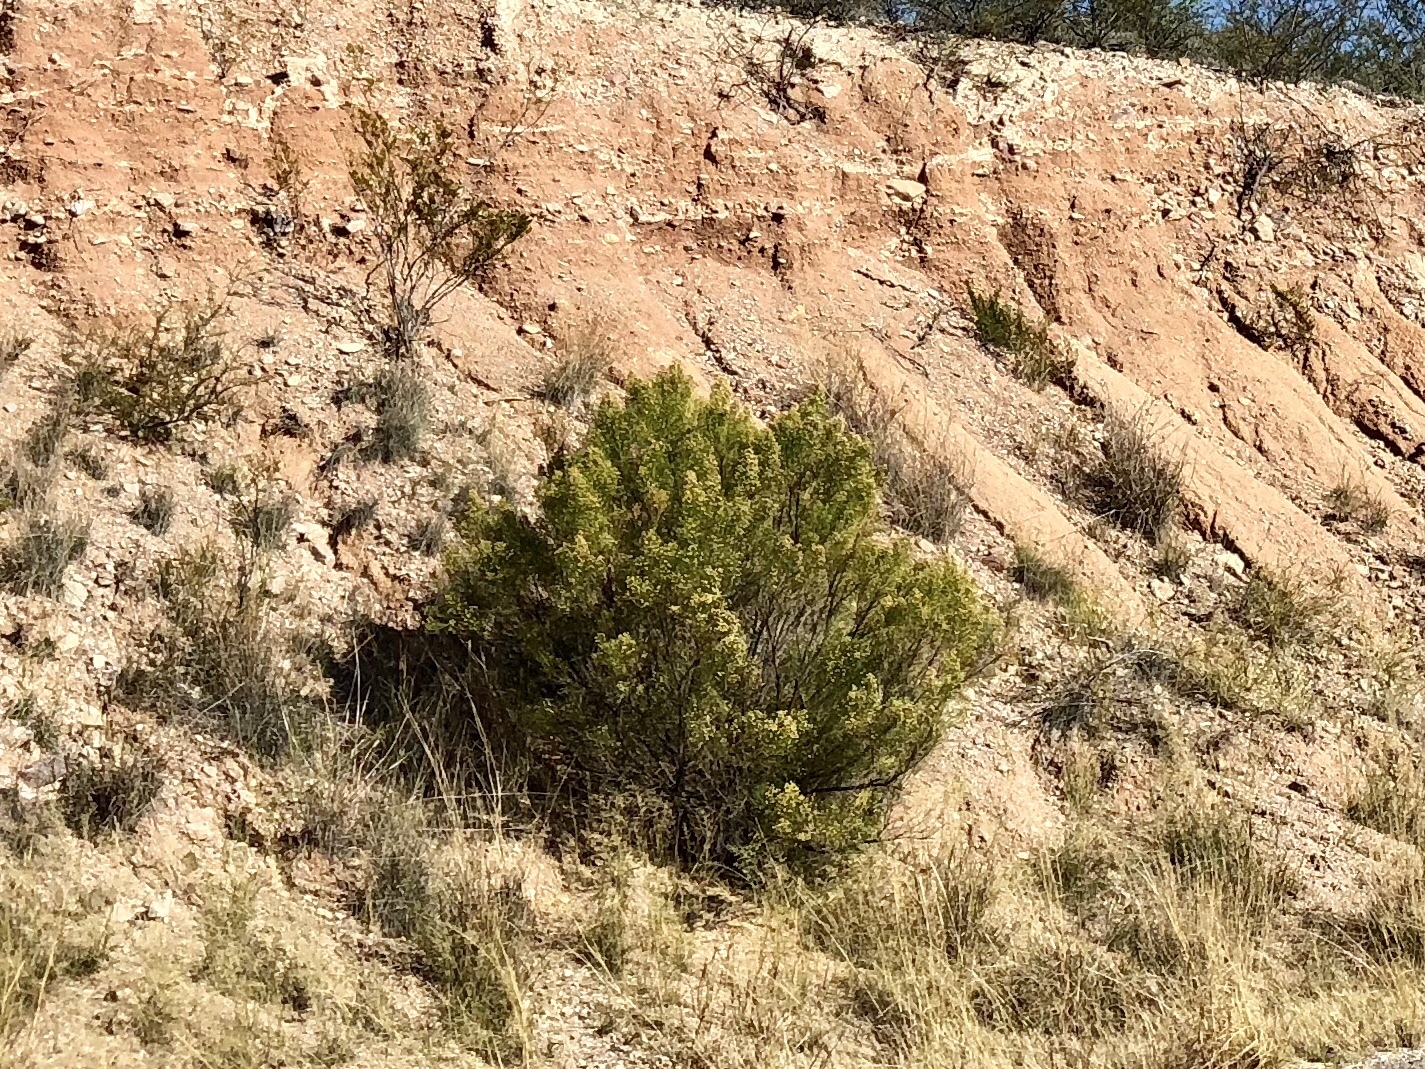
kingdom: Plantae
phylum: Tracheophyta
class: Magnoliopsida
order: Asterales
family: Asteraceae
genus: Baccharis
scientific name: Baccharis sarothroides
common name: Desert-broom
